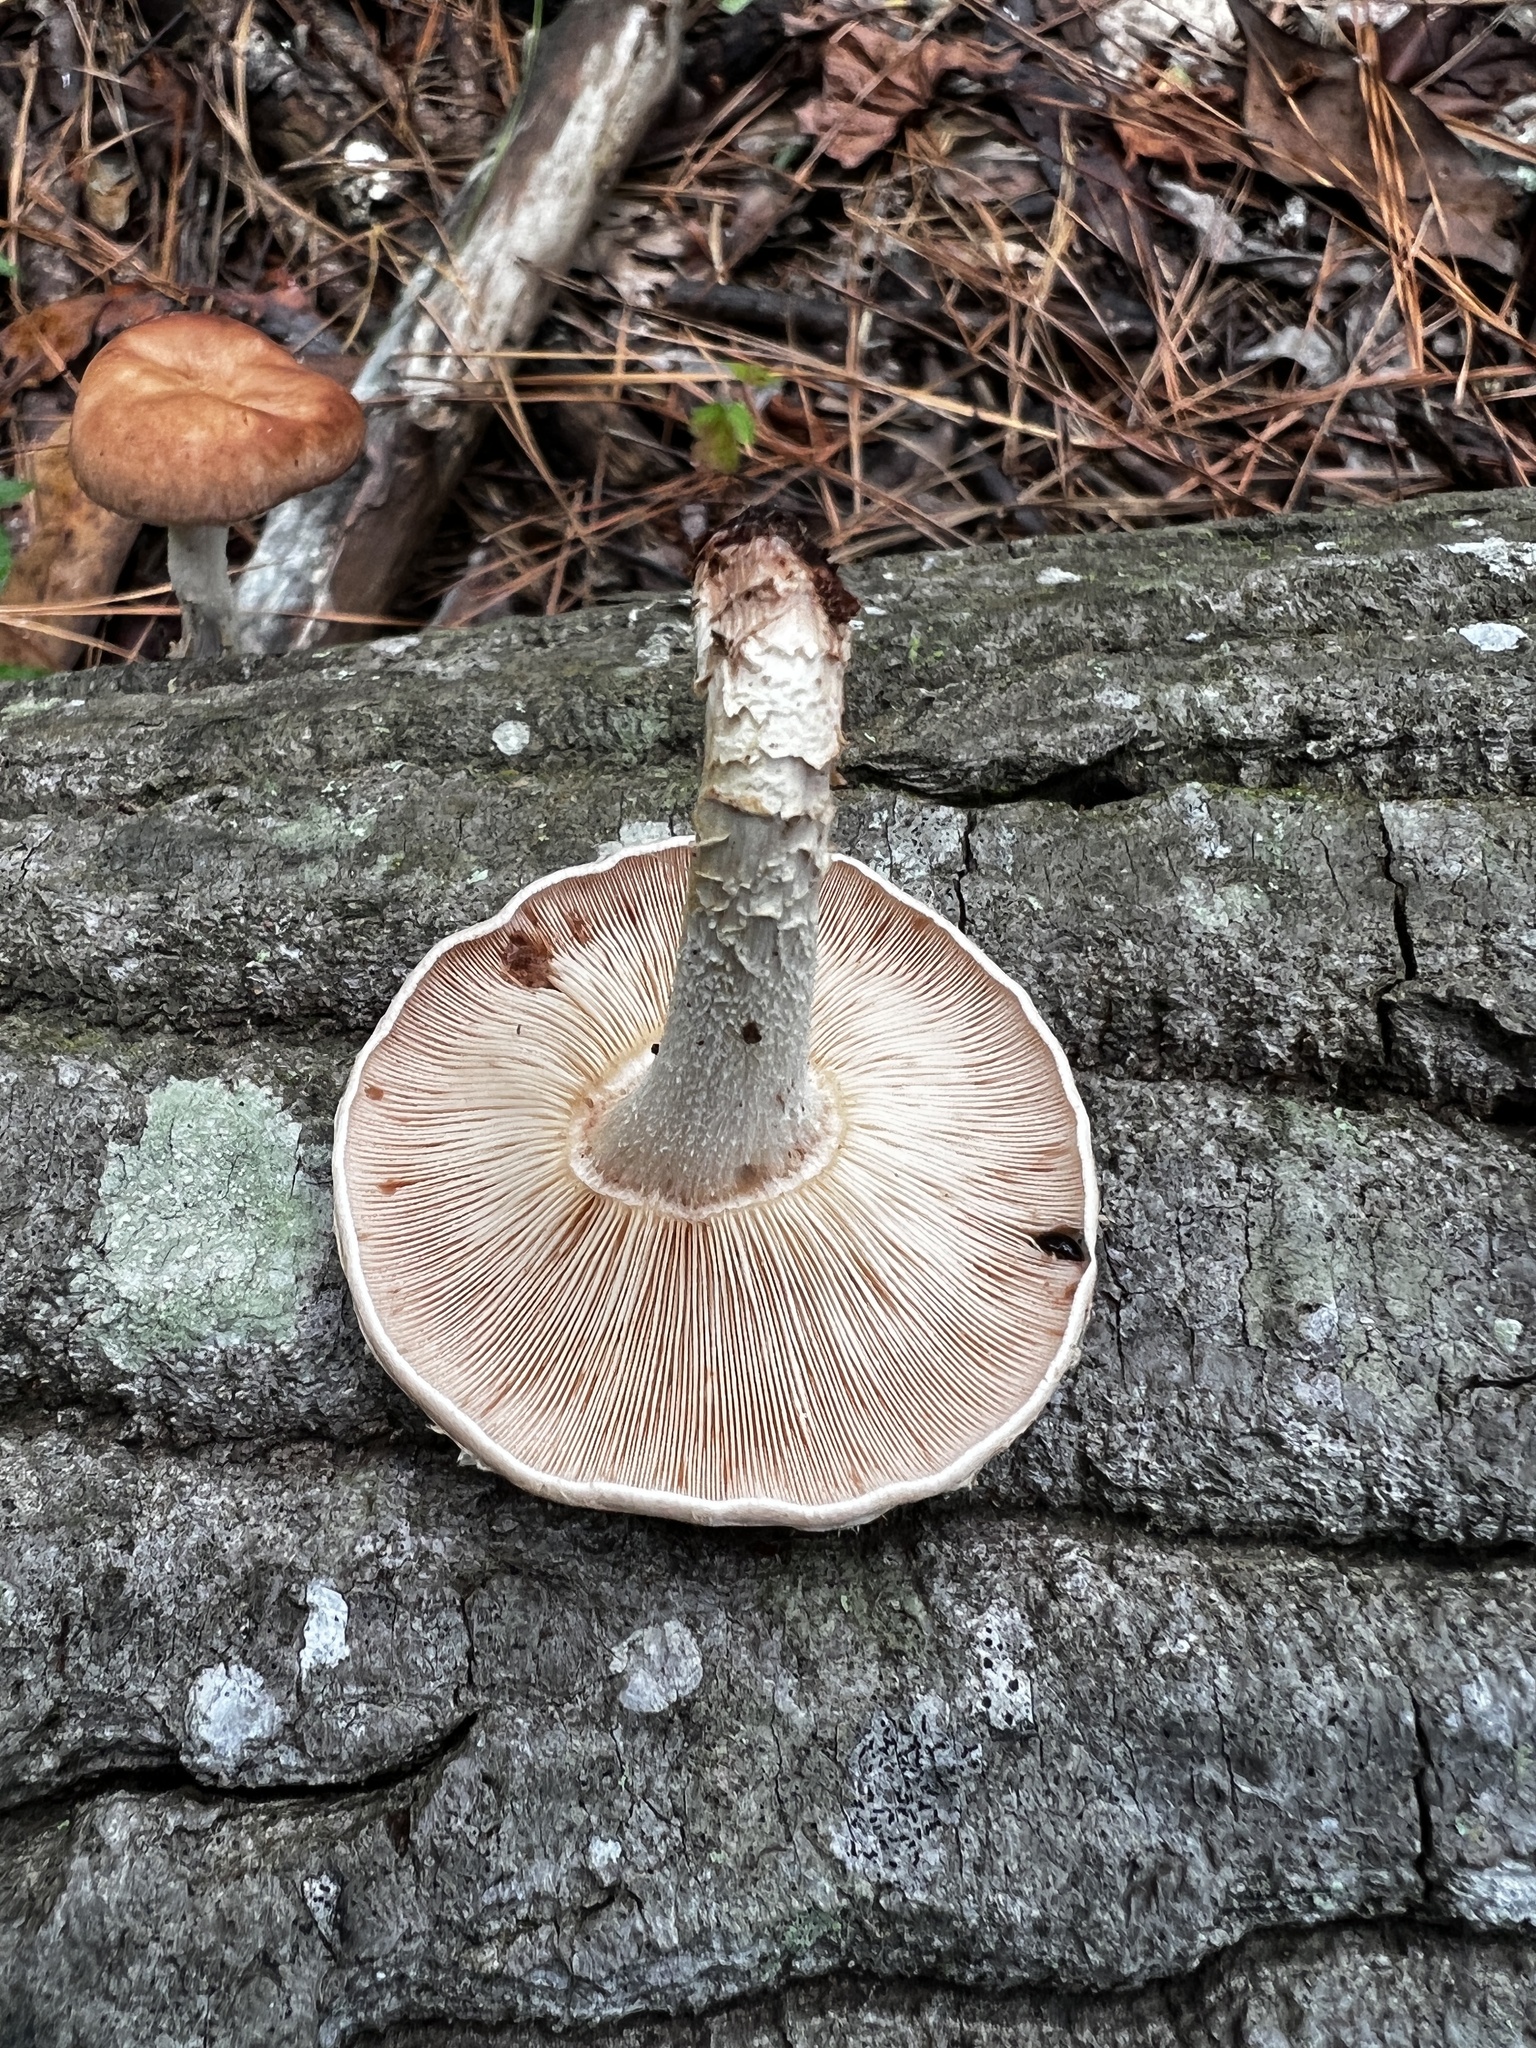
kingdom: Fungi
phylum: Basidiomycota
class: Agaricomycetes
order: Agaricales
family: Omphalotaceae
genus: Lentinula
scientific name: Lentinula raphanica
